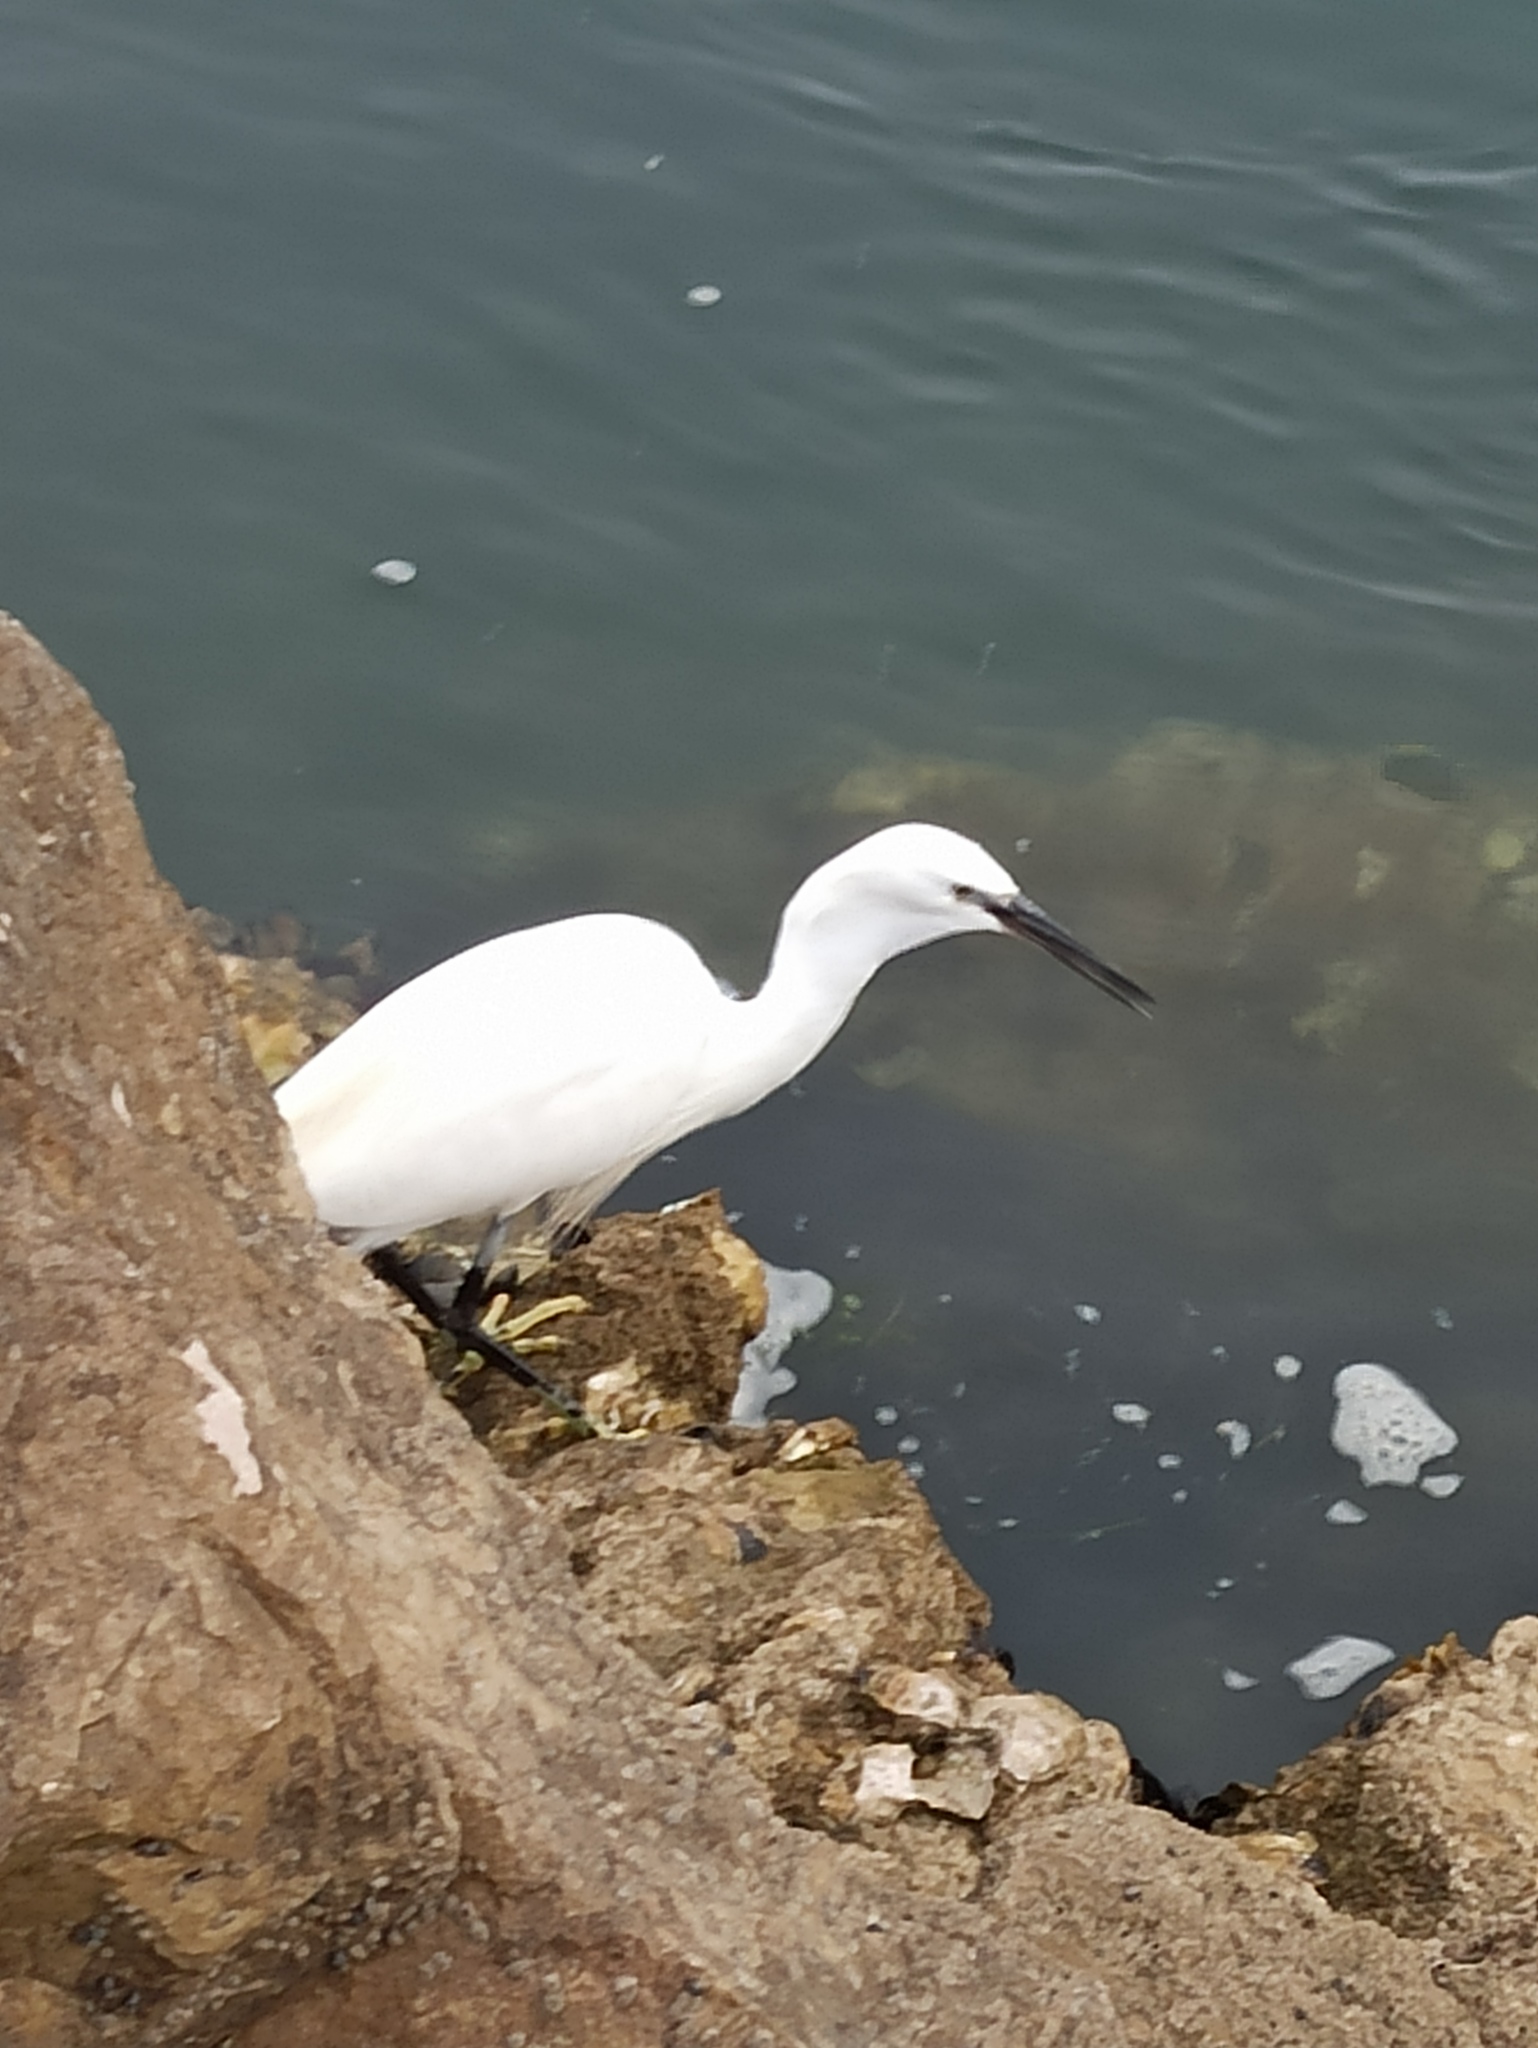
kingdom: Animalia
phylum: Chordata
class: Aves
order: Pelecaniformes
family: Ardeidae
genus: Egretta
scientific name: Egretta garzetta
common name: Little egret
